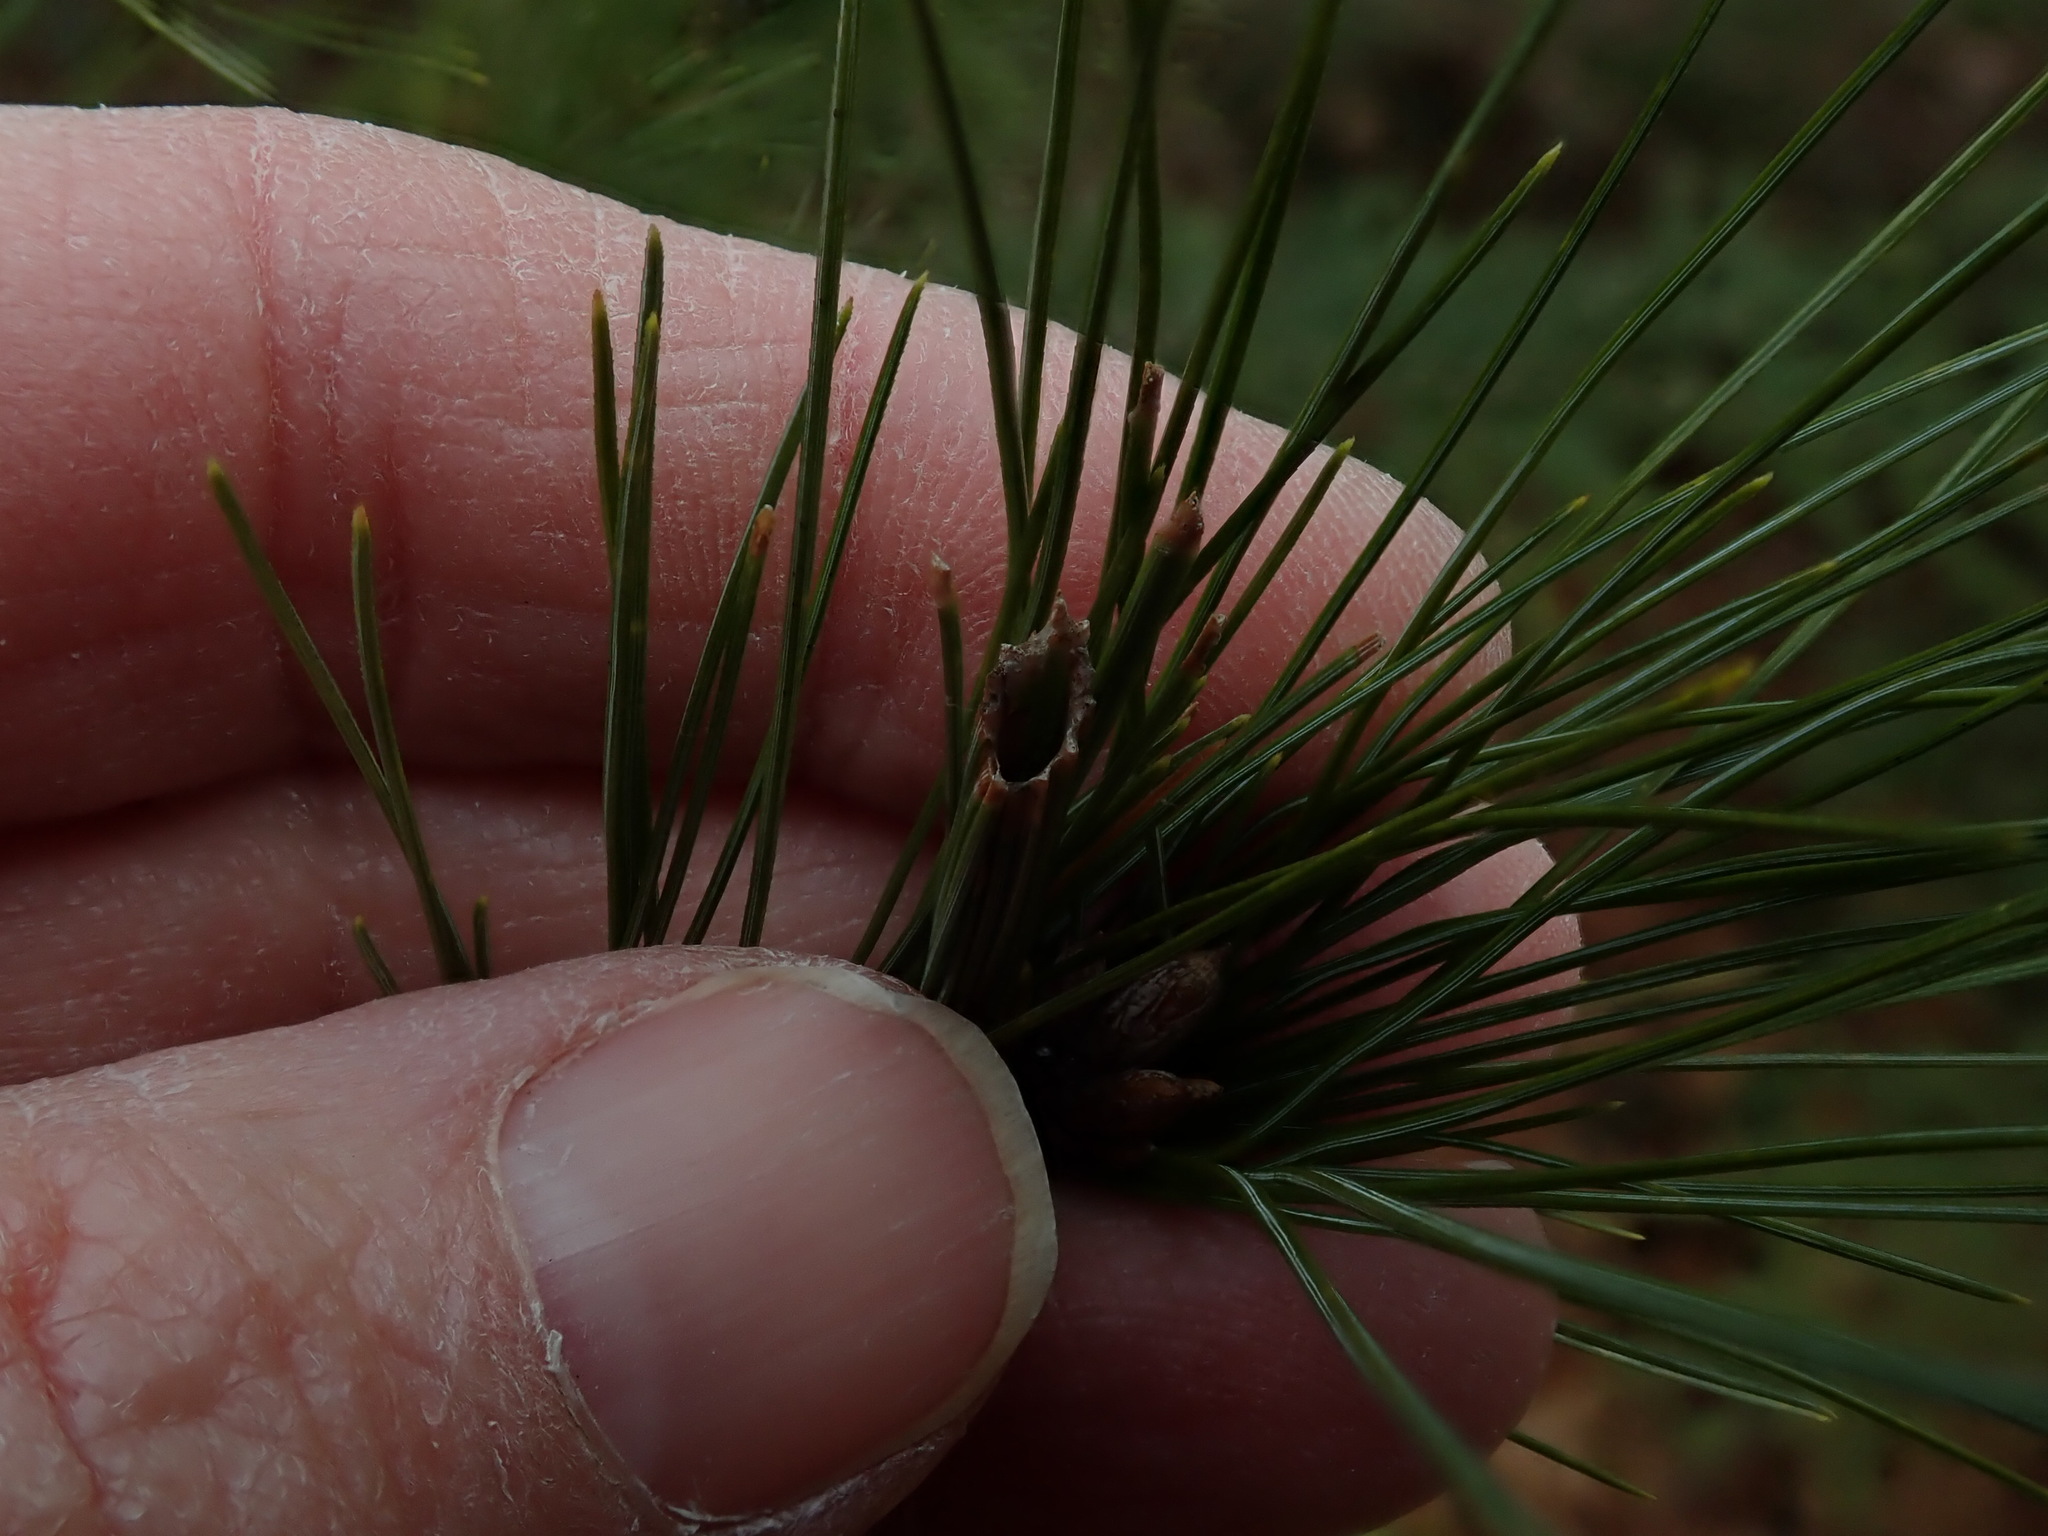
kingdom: Animalia
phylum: Arthropoda
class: Insecta
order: Lepidoptera
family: Tortricidae
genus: Argyrotaenia
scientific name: Argyrotaenia pinatubana
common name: Pine tube moth
